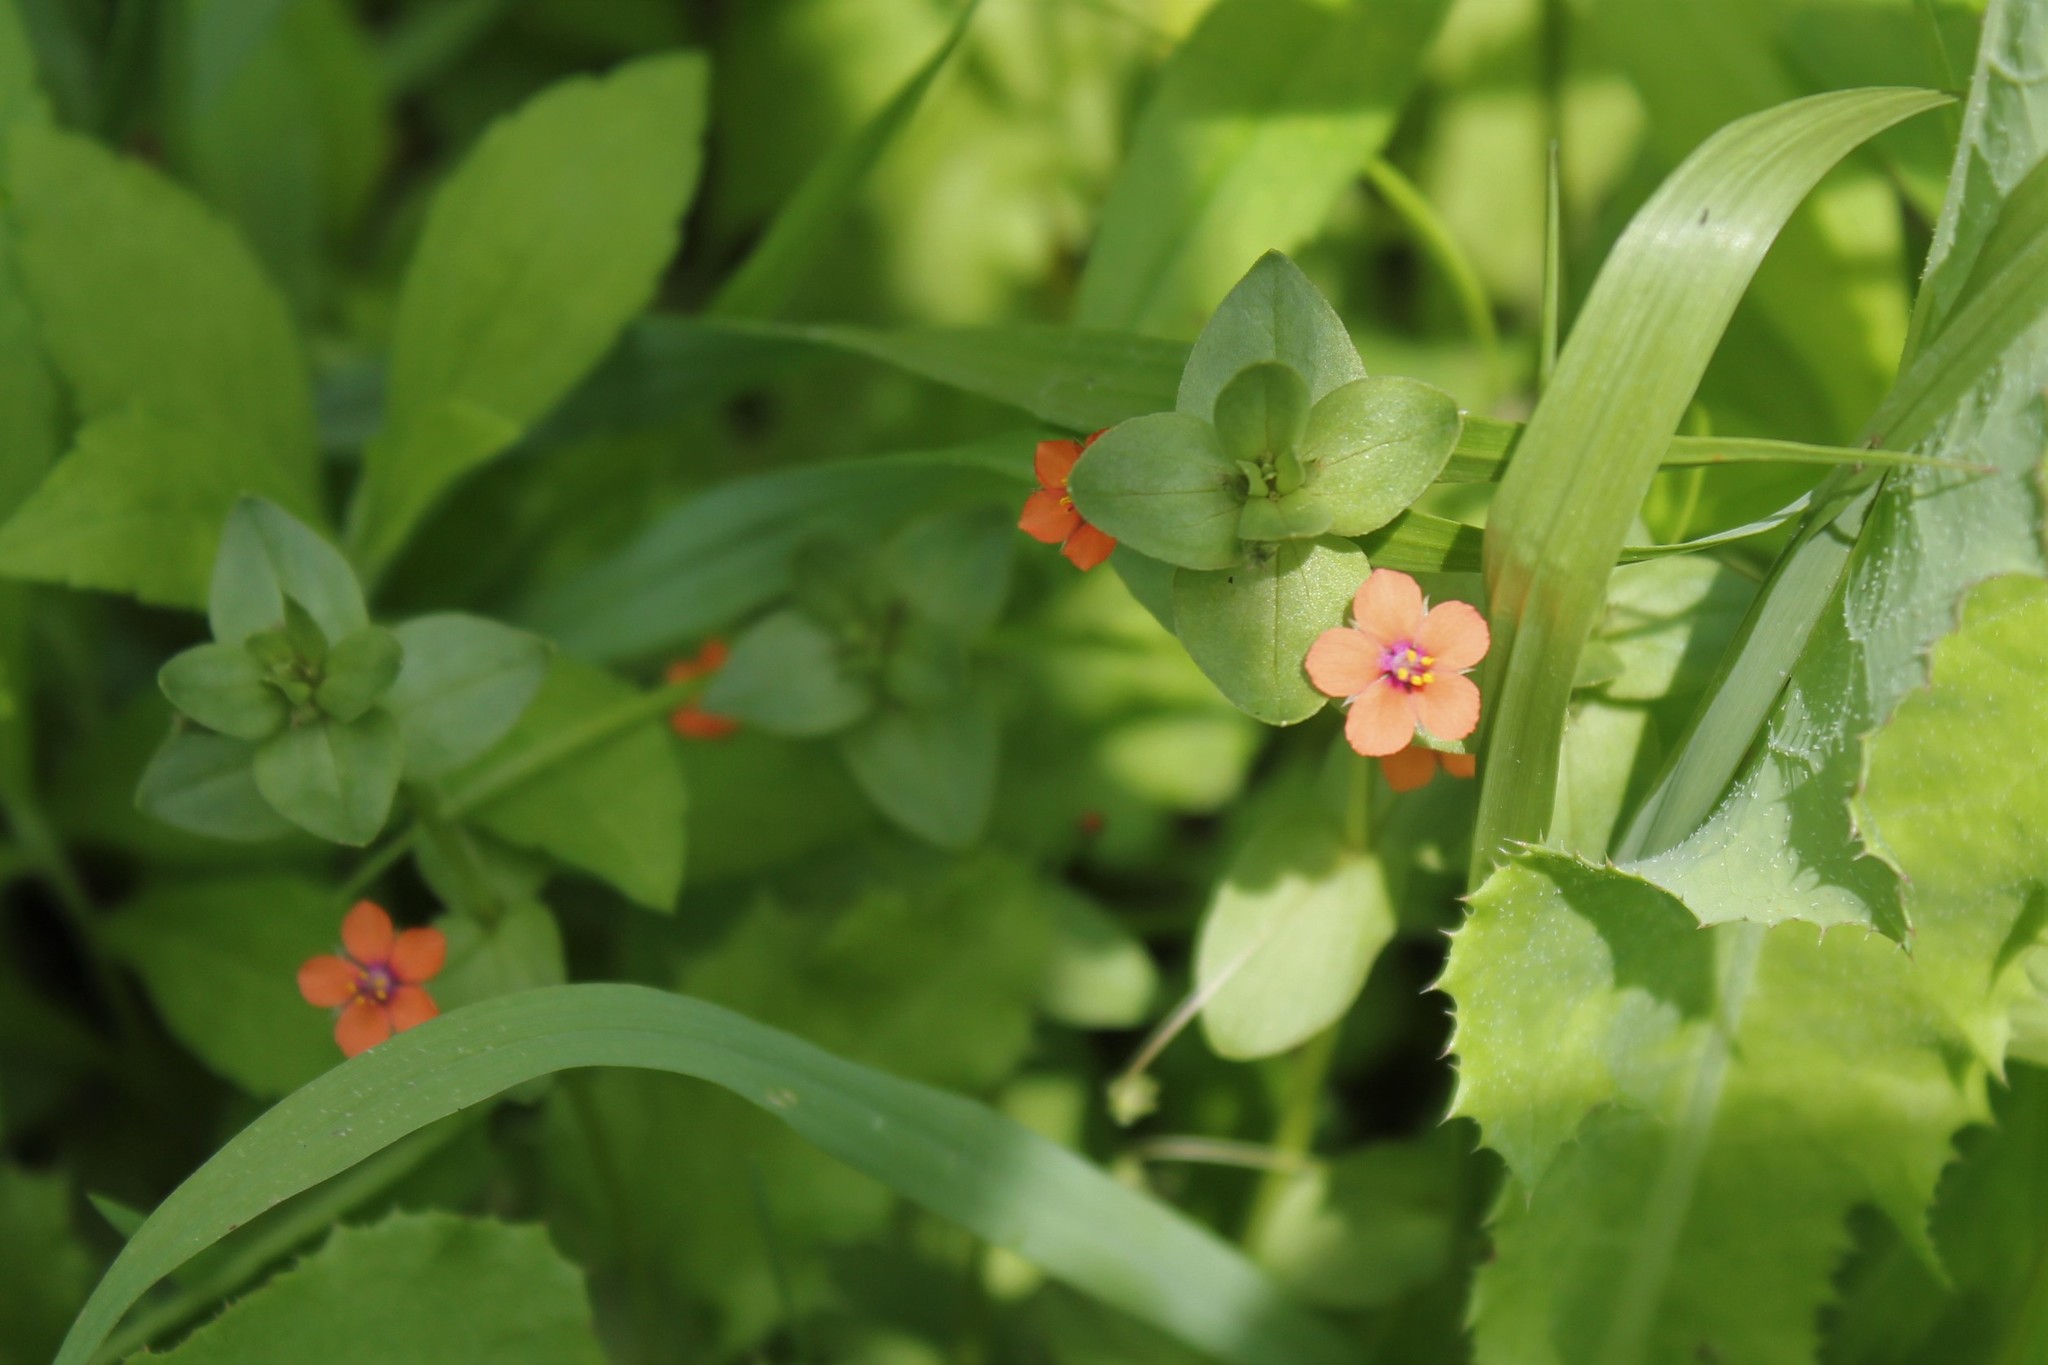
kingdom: Plantae
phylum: Tracheophyta
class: Magnoliopsida
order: Ericales
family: Primulaceae
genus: Lysimachia
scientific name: Lysimachia arvensis
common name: Scarlet pimpernel
